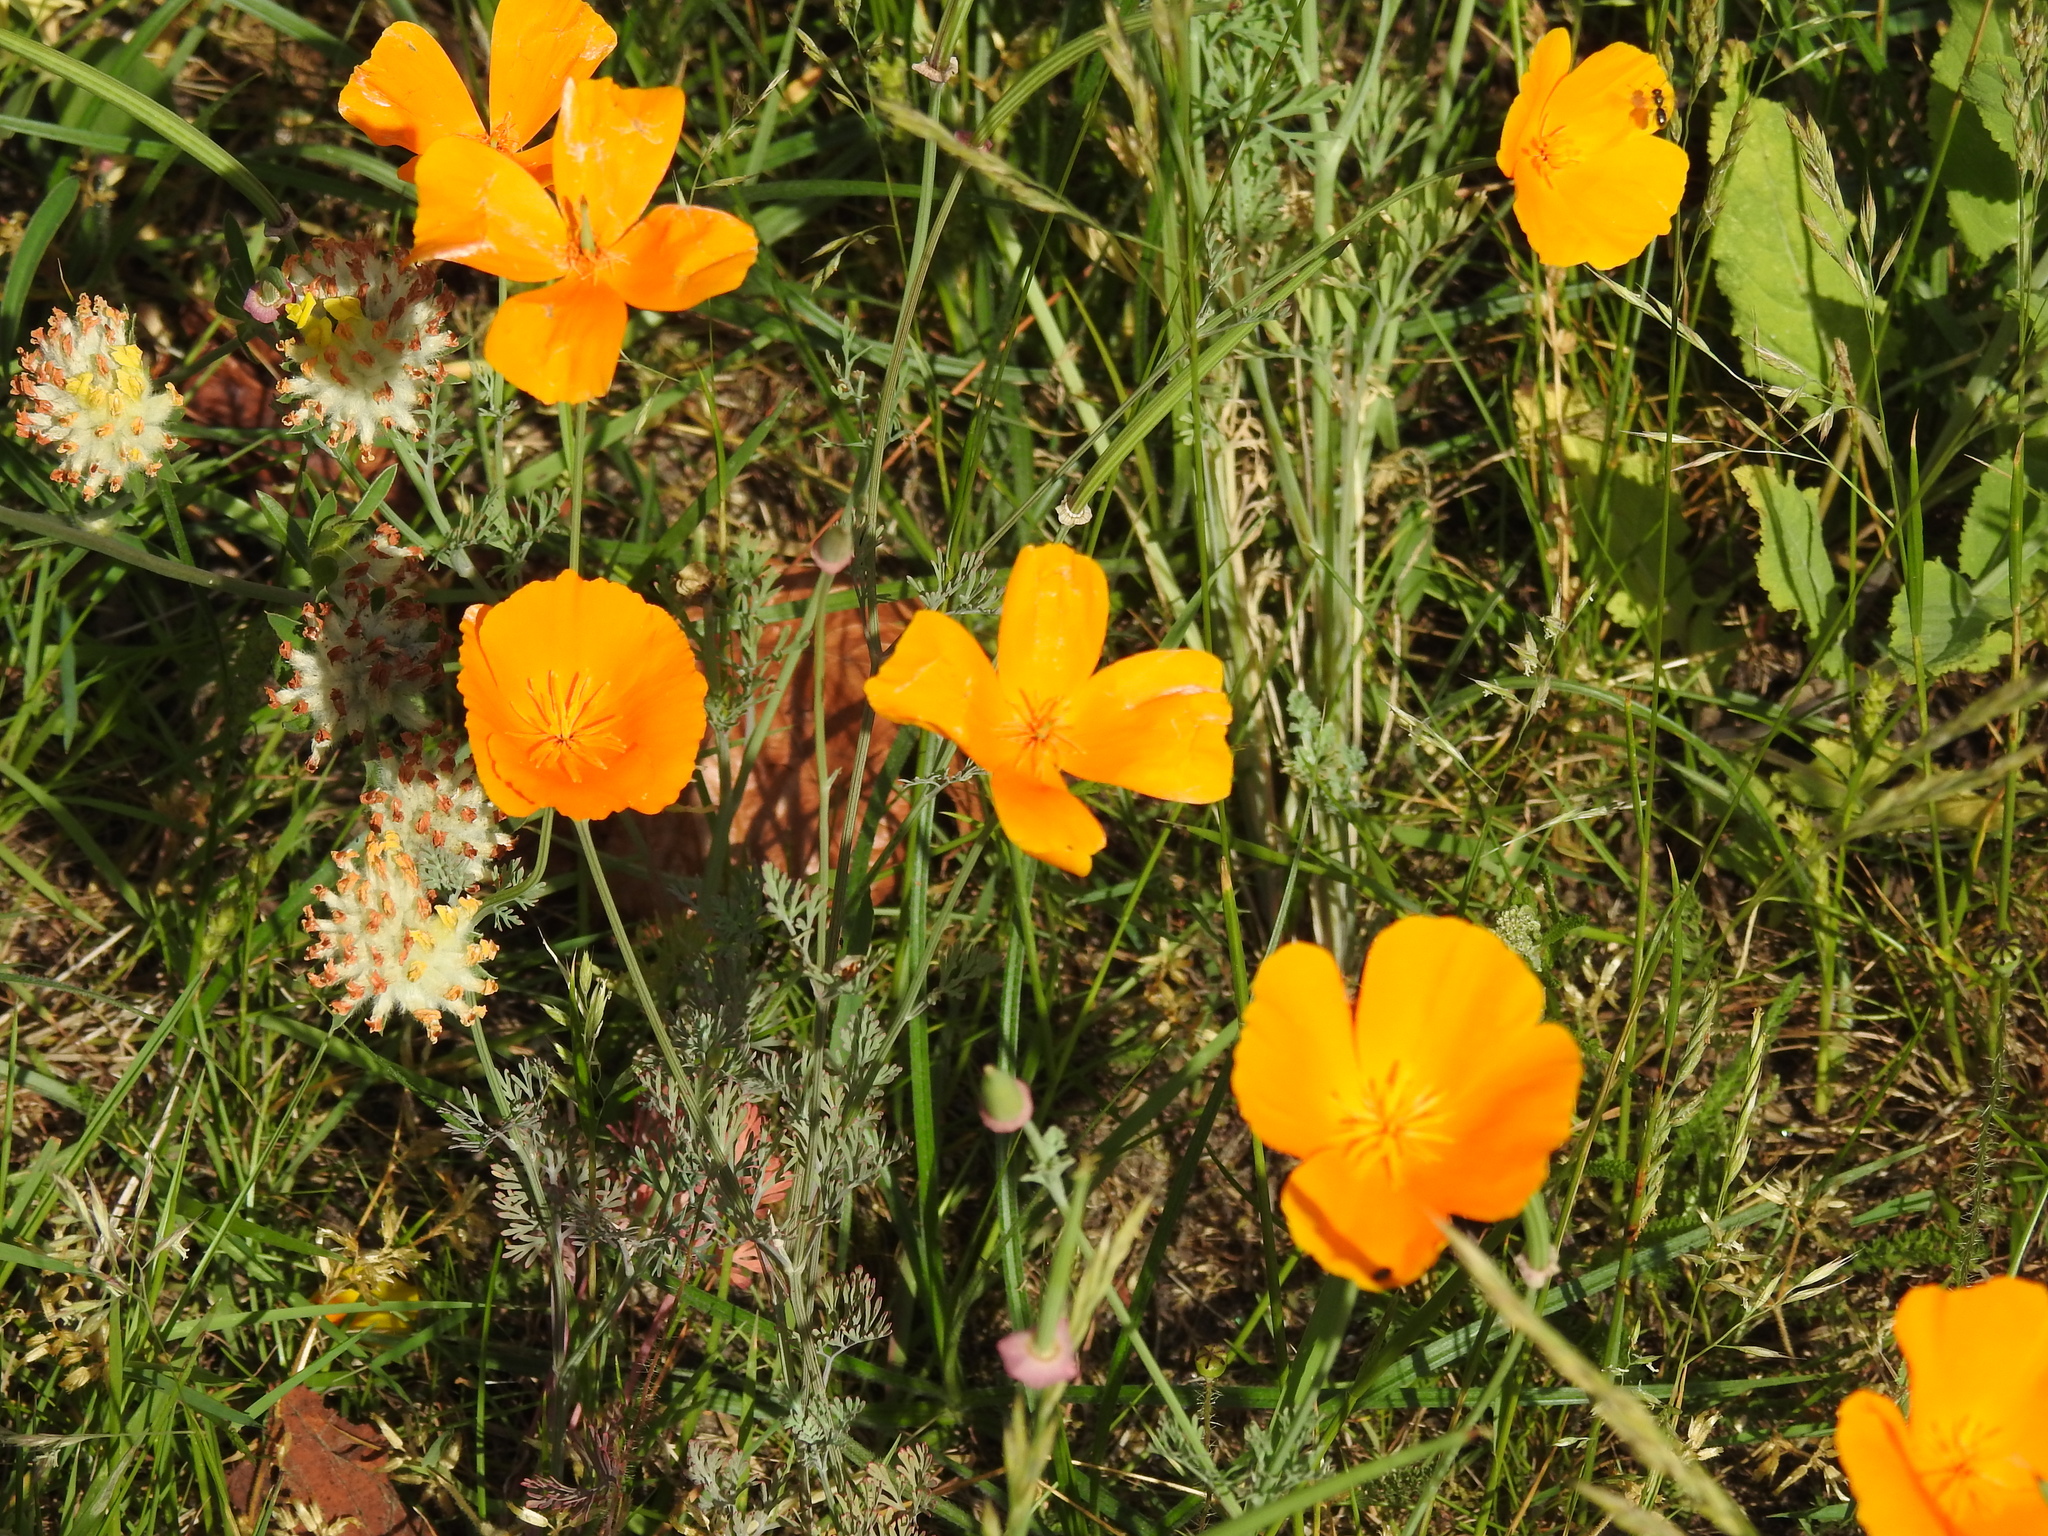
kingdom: Plantae
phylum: Tracheophyta
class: Magnoliopsida
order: Ranunculales
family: Papaveraceae
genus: Eschscholzia
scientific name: Eschscholzia californica
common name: California poppy
